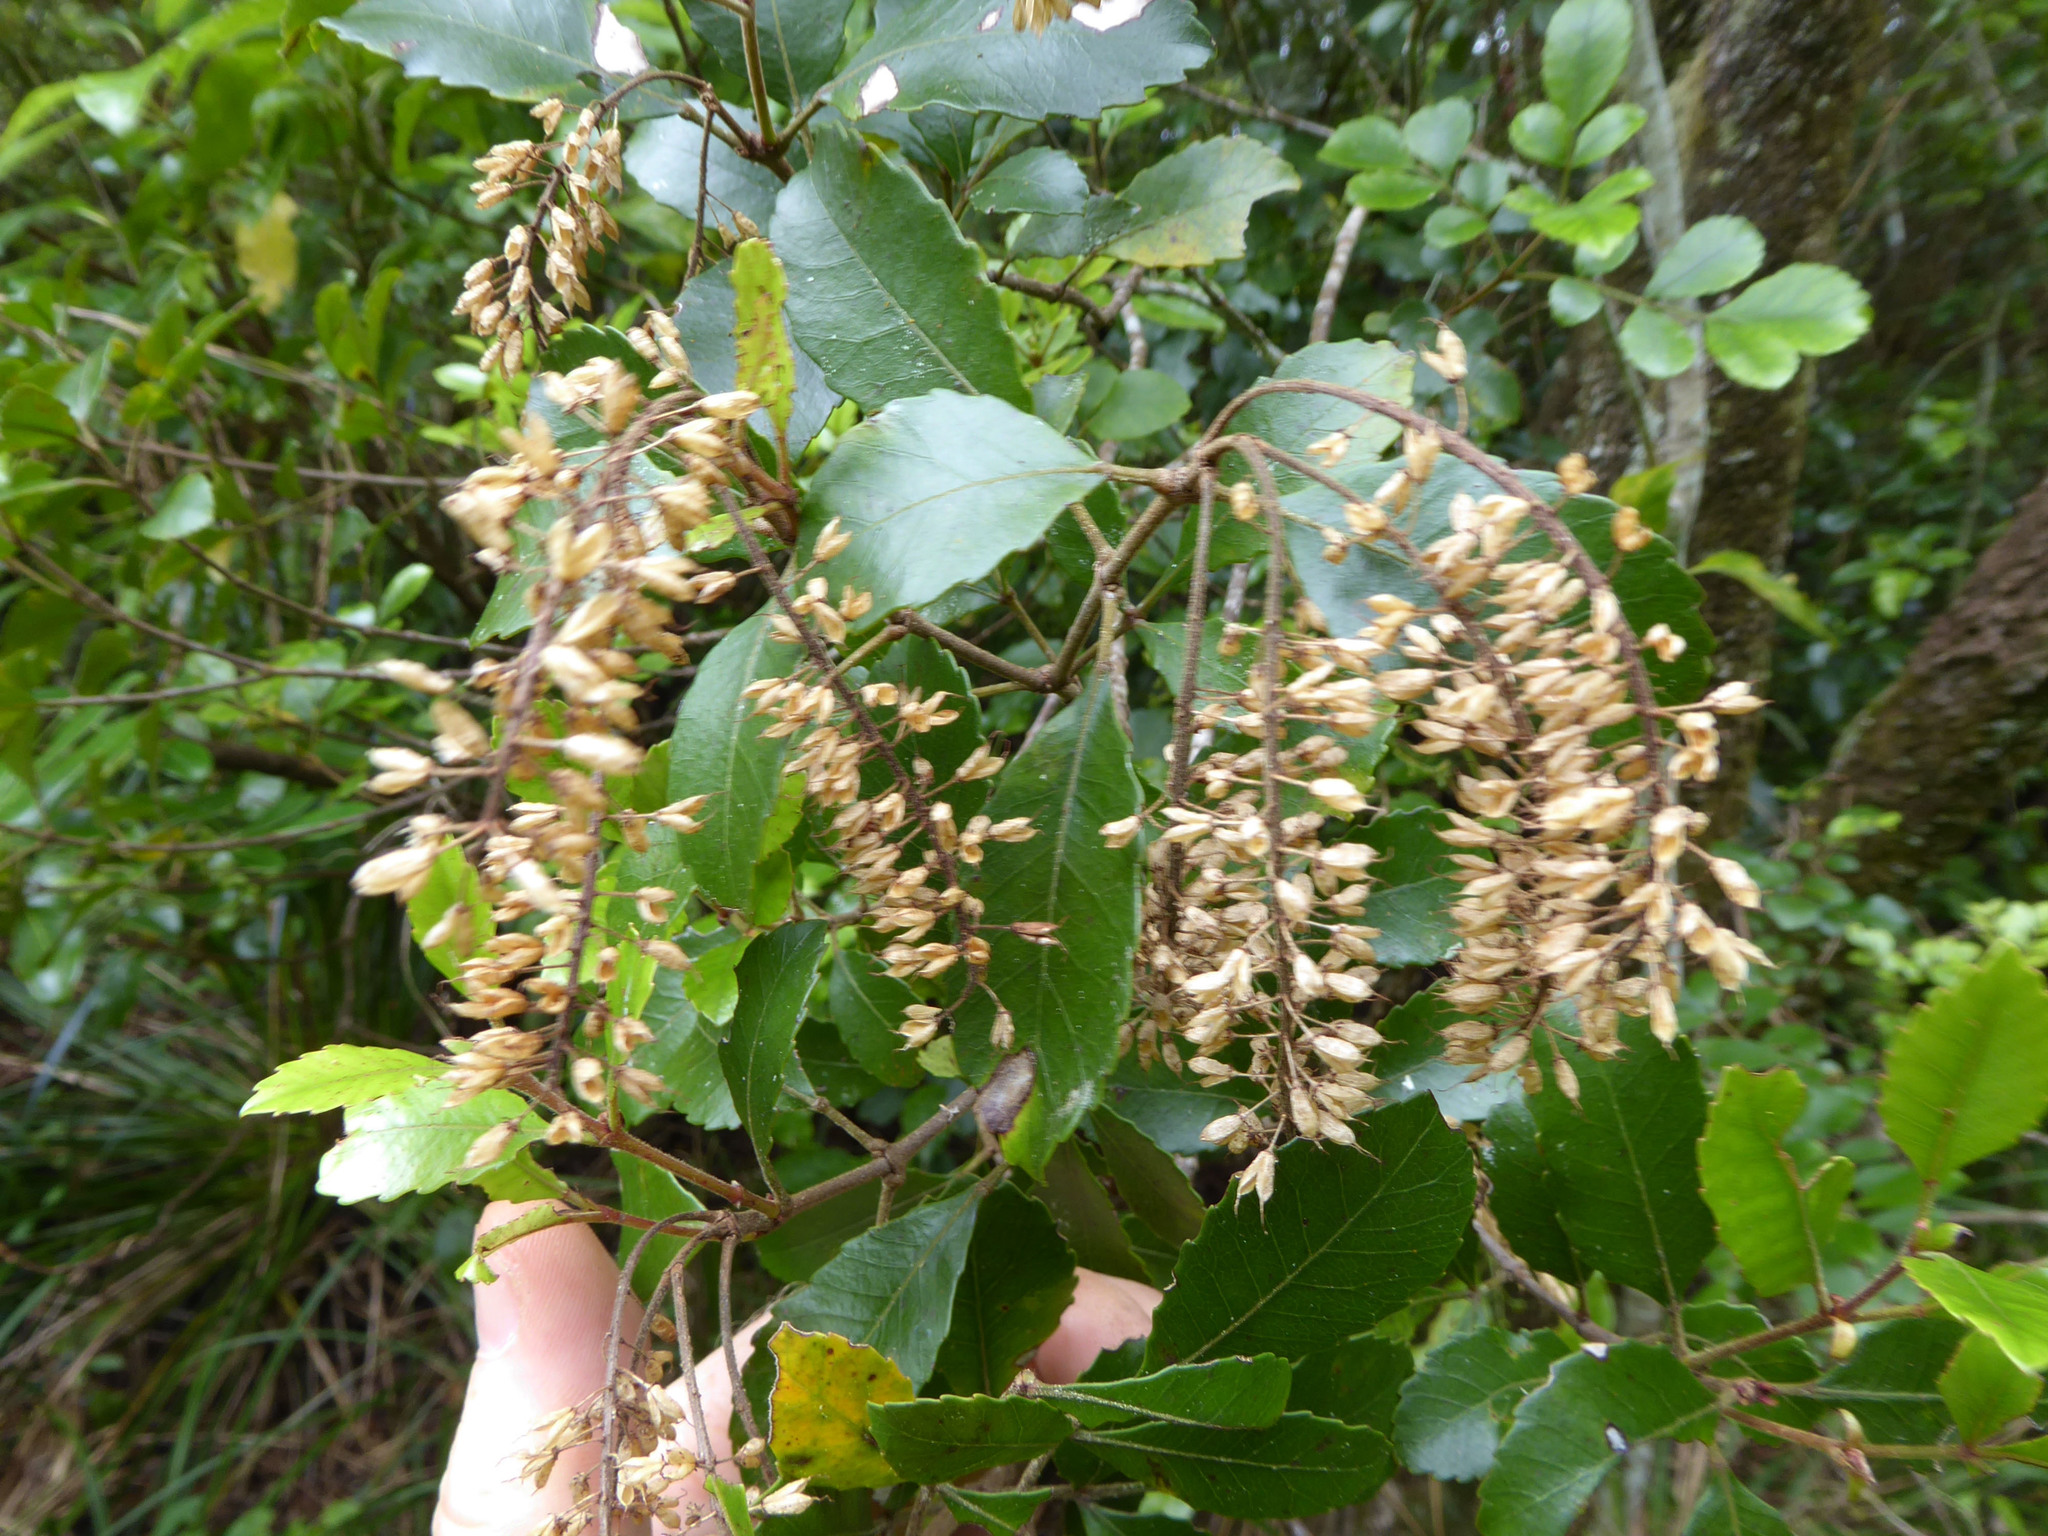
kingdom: Plantae
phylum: Tracheophyta
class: Magnoliopsida
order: Oxalidales
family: Cunoniaceae
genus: Pterophylla
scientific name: Pterophylla sylvicola
